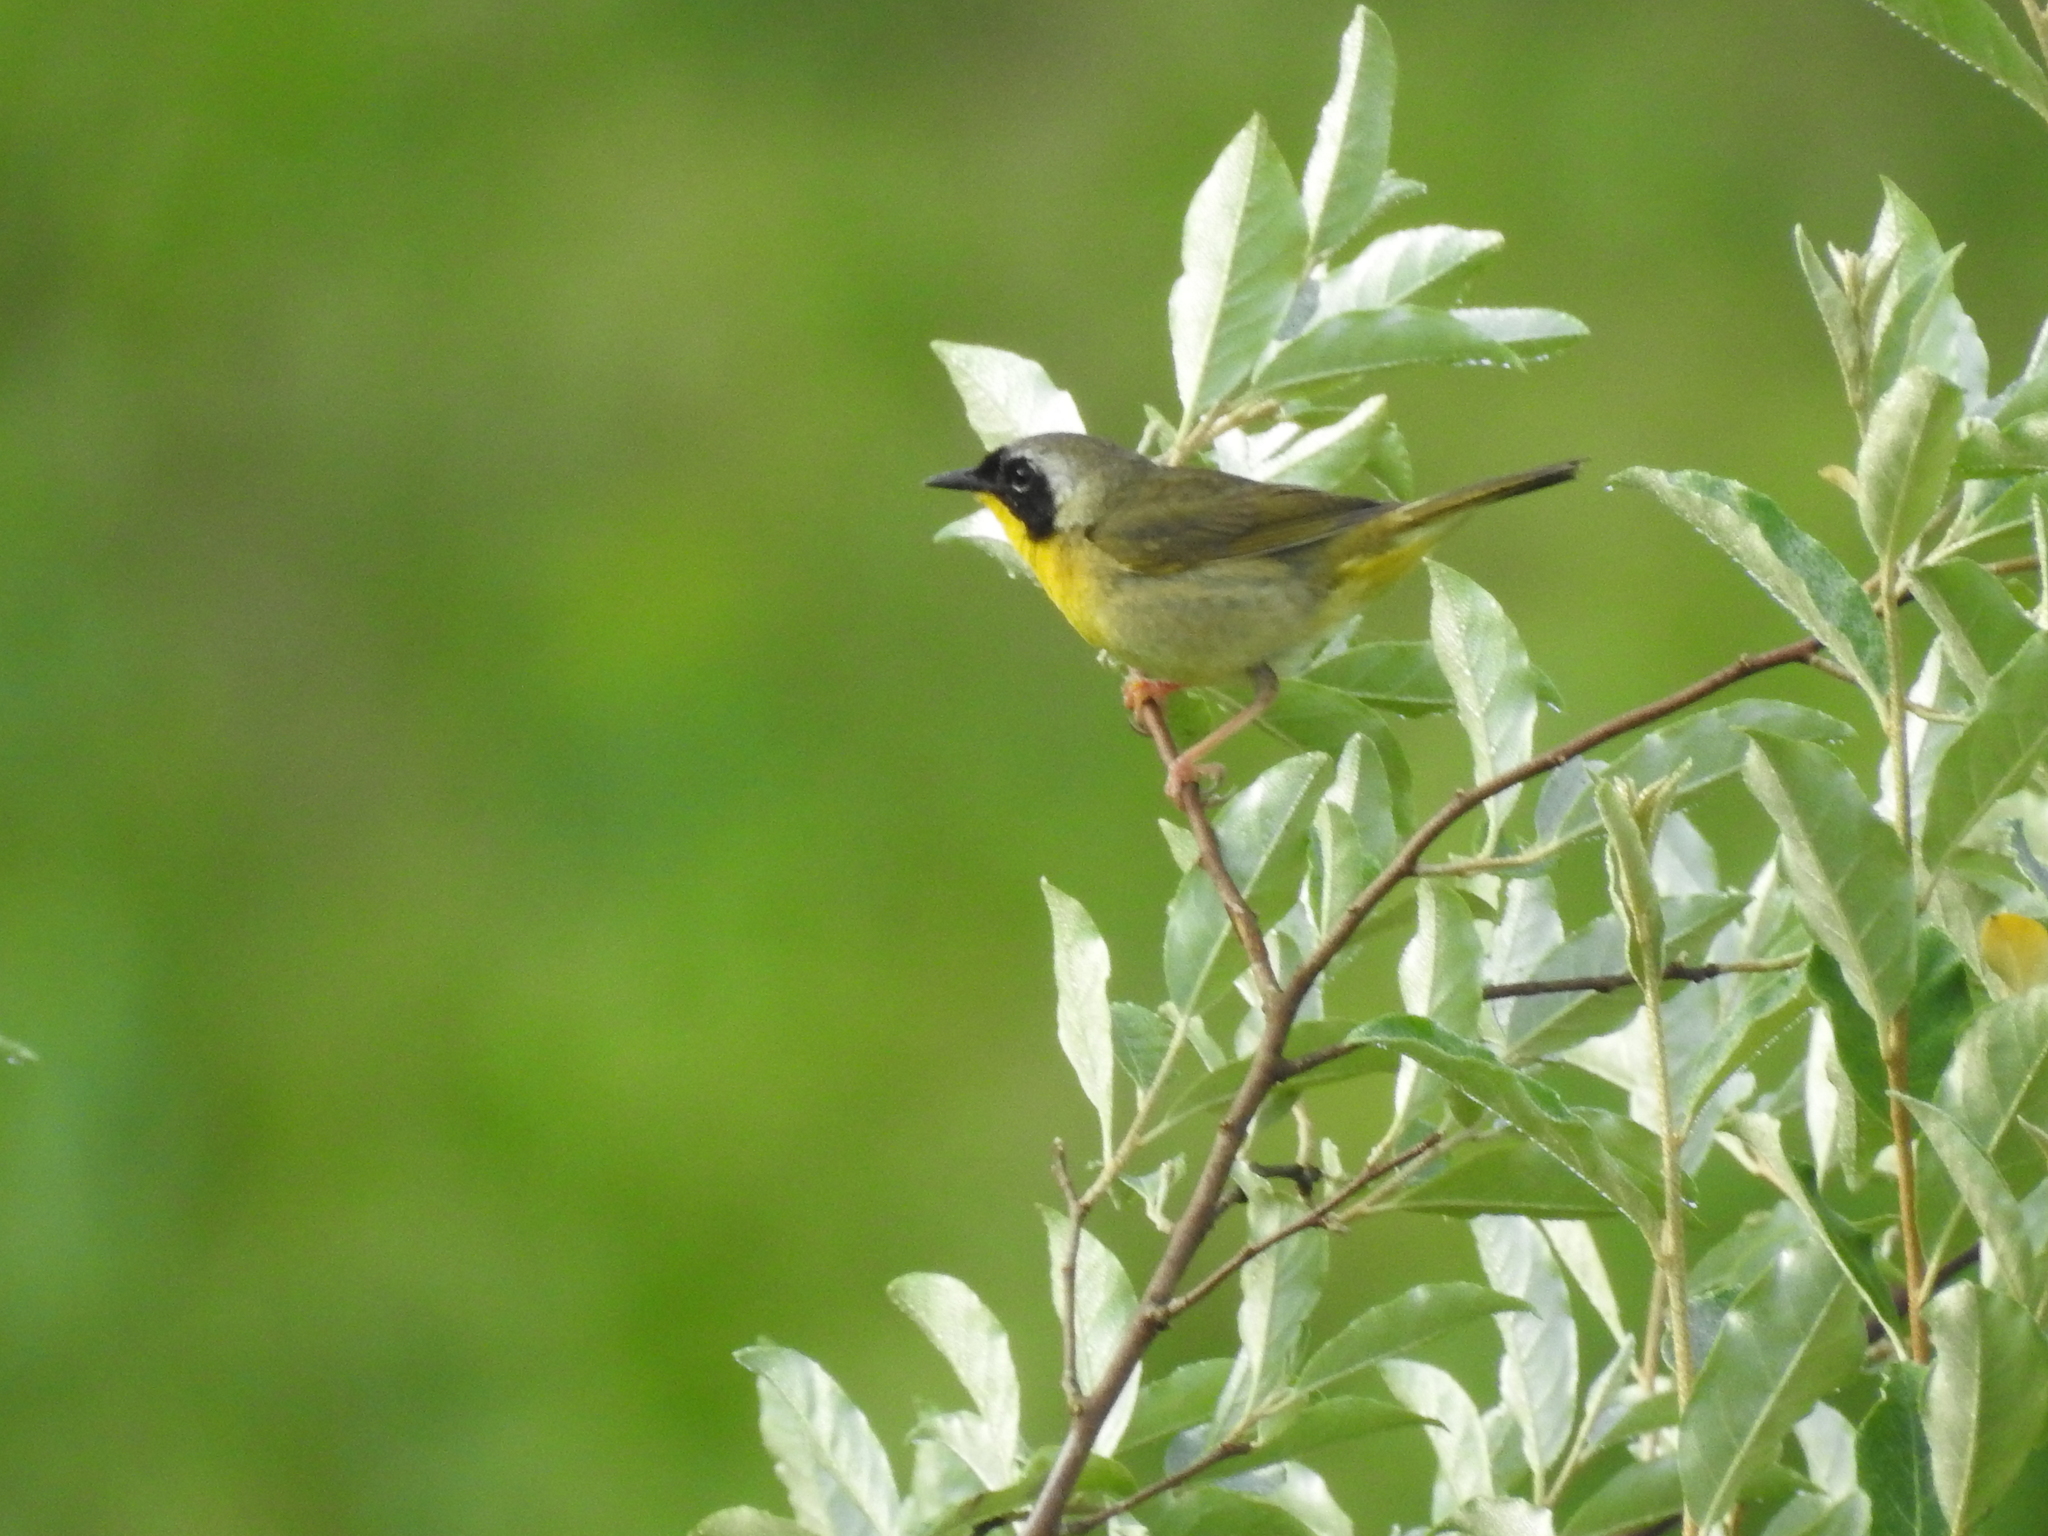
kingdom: Animalia
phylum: Chordata
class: Aves
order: Passeriformes
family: Parulidae
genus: Geothlypis
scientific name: Geothlypis trichas
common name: Common yellowthroat
